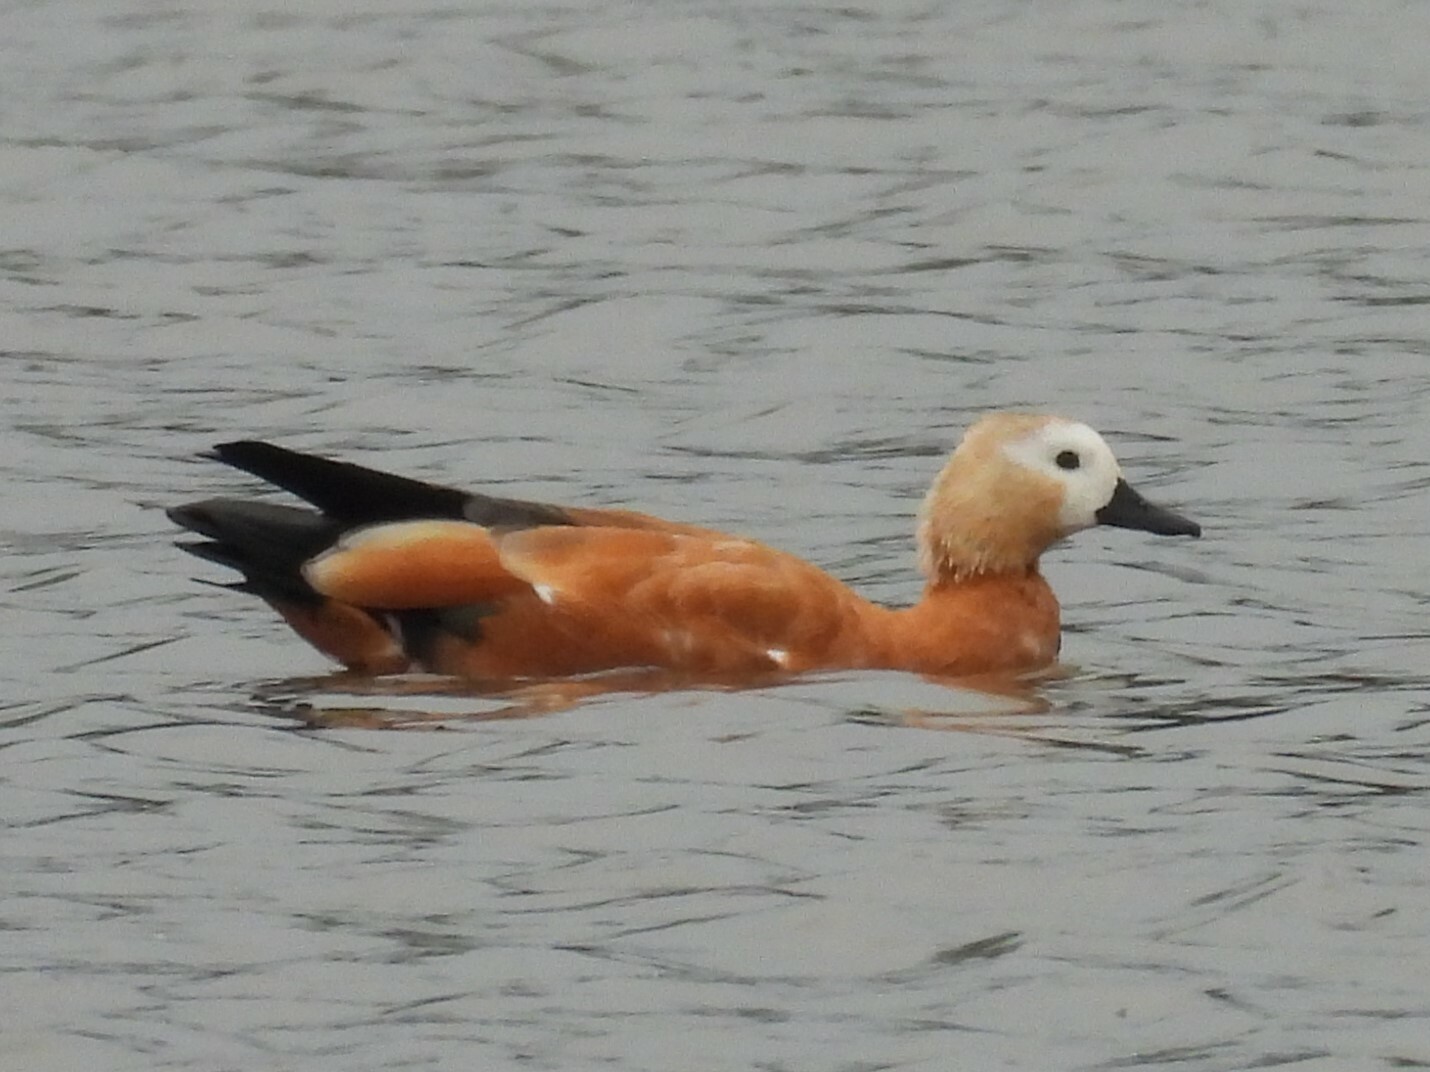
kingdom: Animalia
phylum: Chordata
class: Aves
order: Anseriformes
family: Anatidae
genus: Tadorna
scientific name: Tadorna ferruginea
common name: Ruddy shelduck
